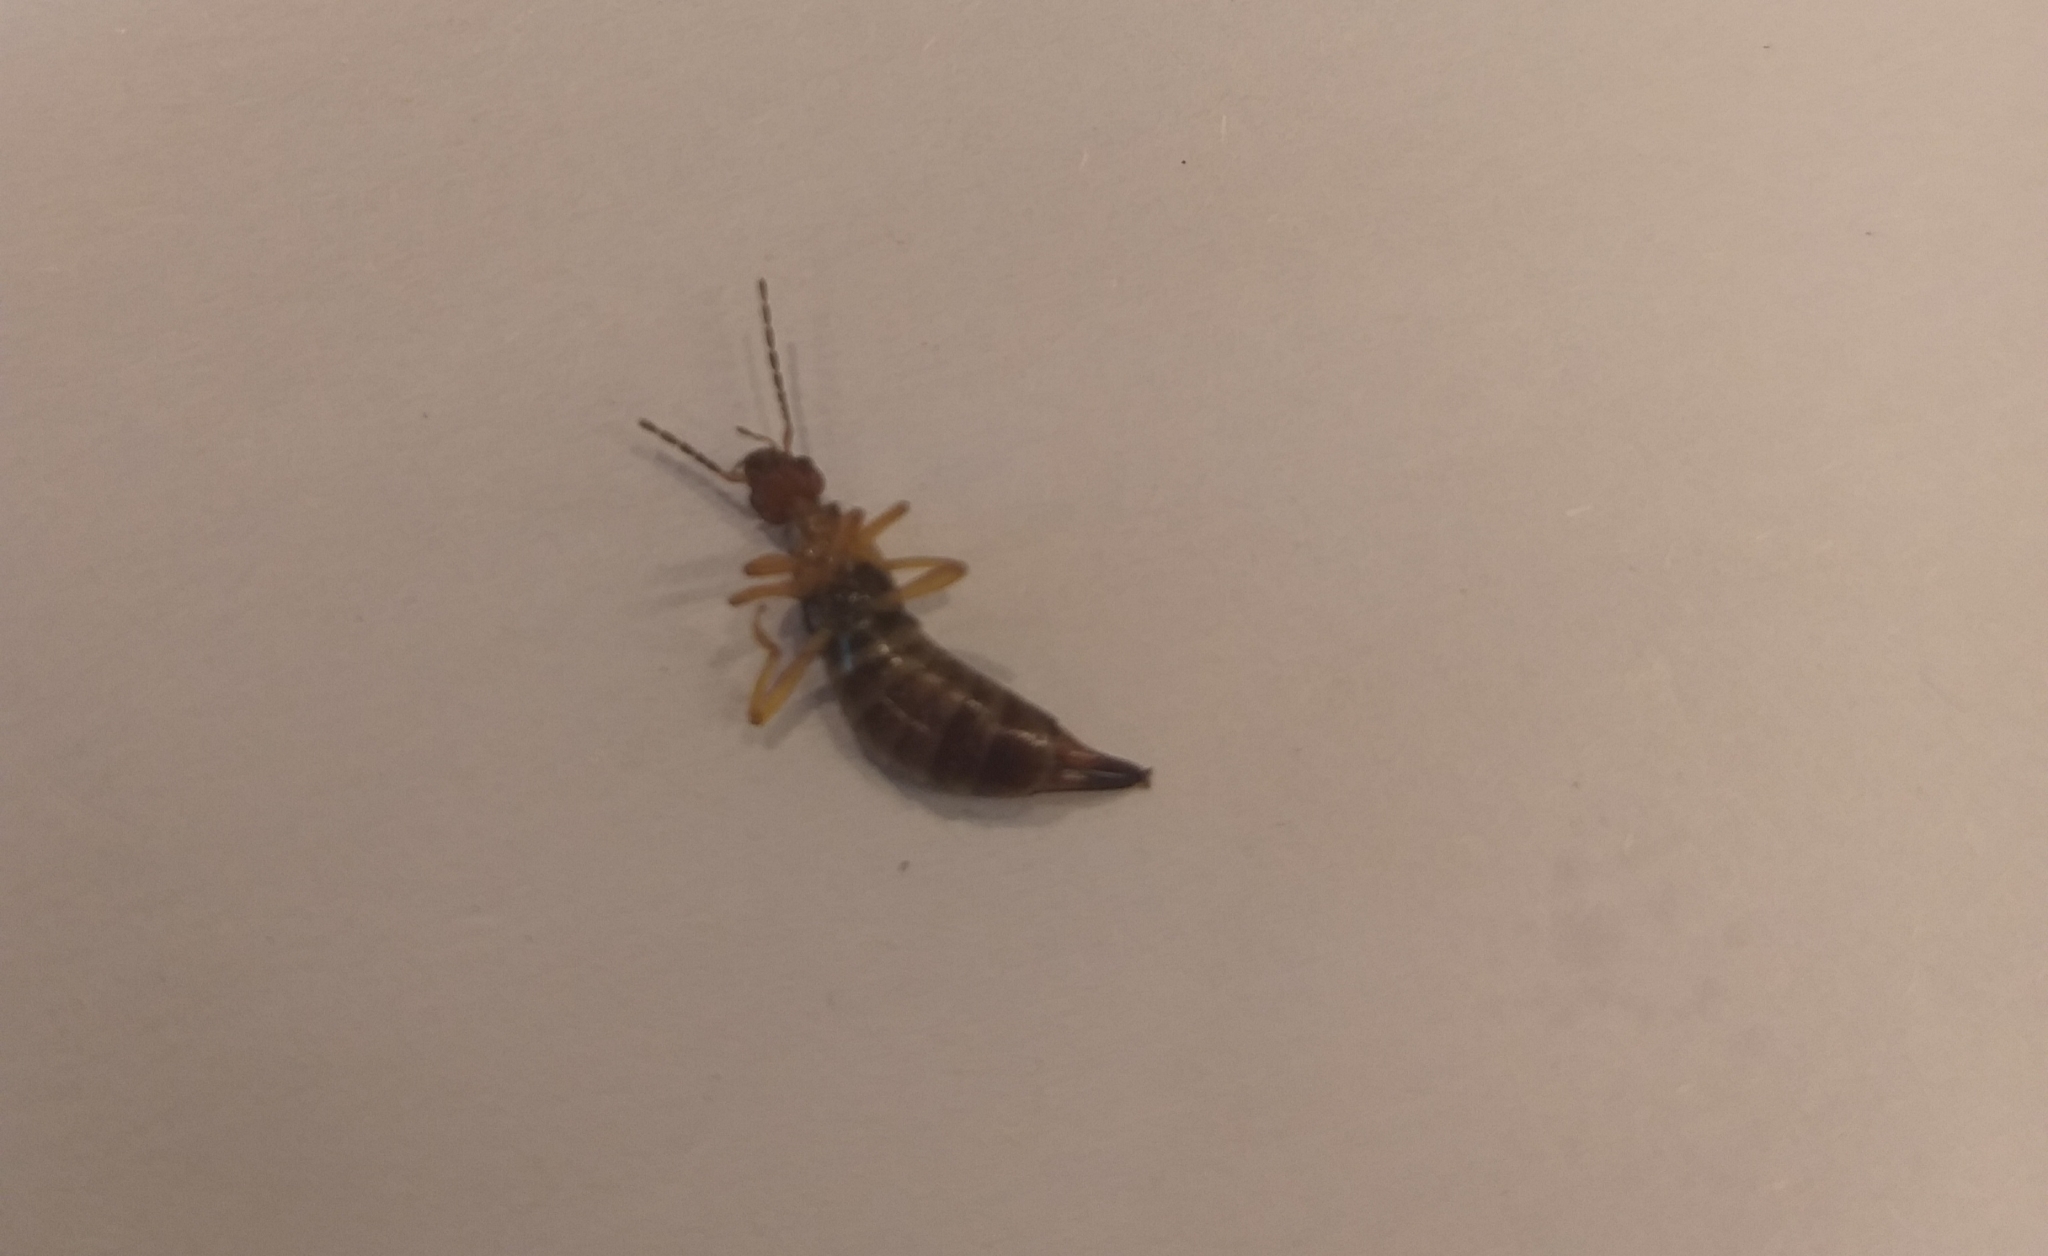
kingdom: Animalia
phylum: Arthropoda
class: Insecta
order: Dermaptera
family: Forficulidae
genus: Forficula
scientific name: Forficula
